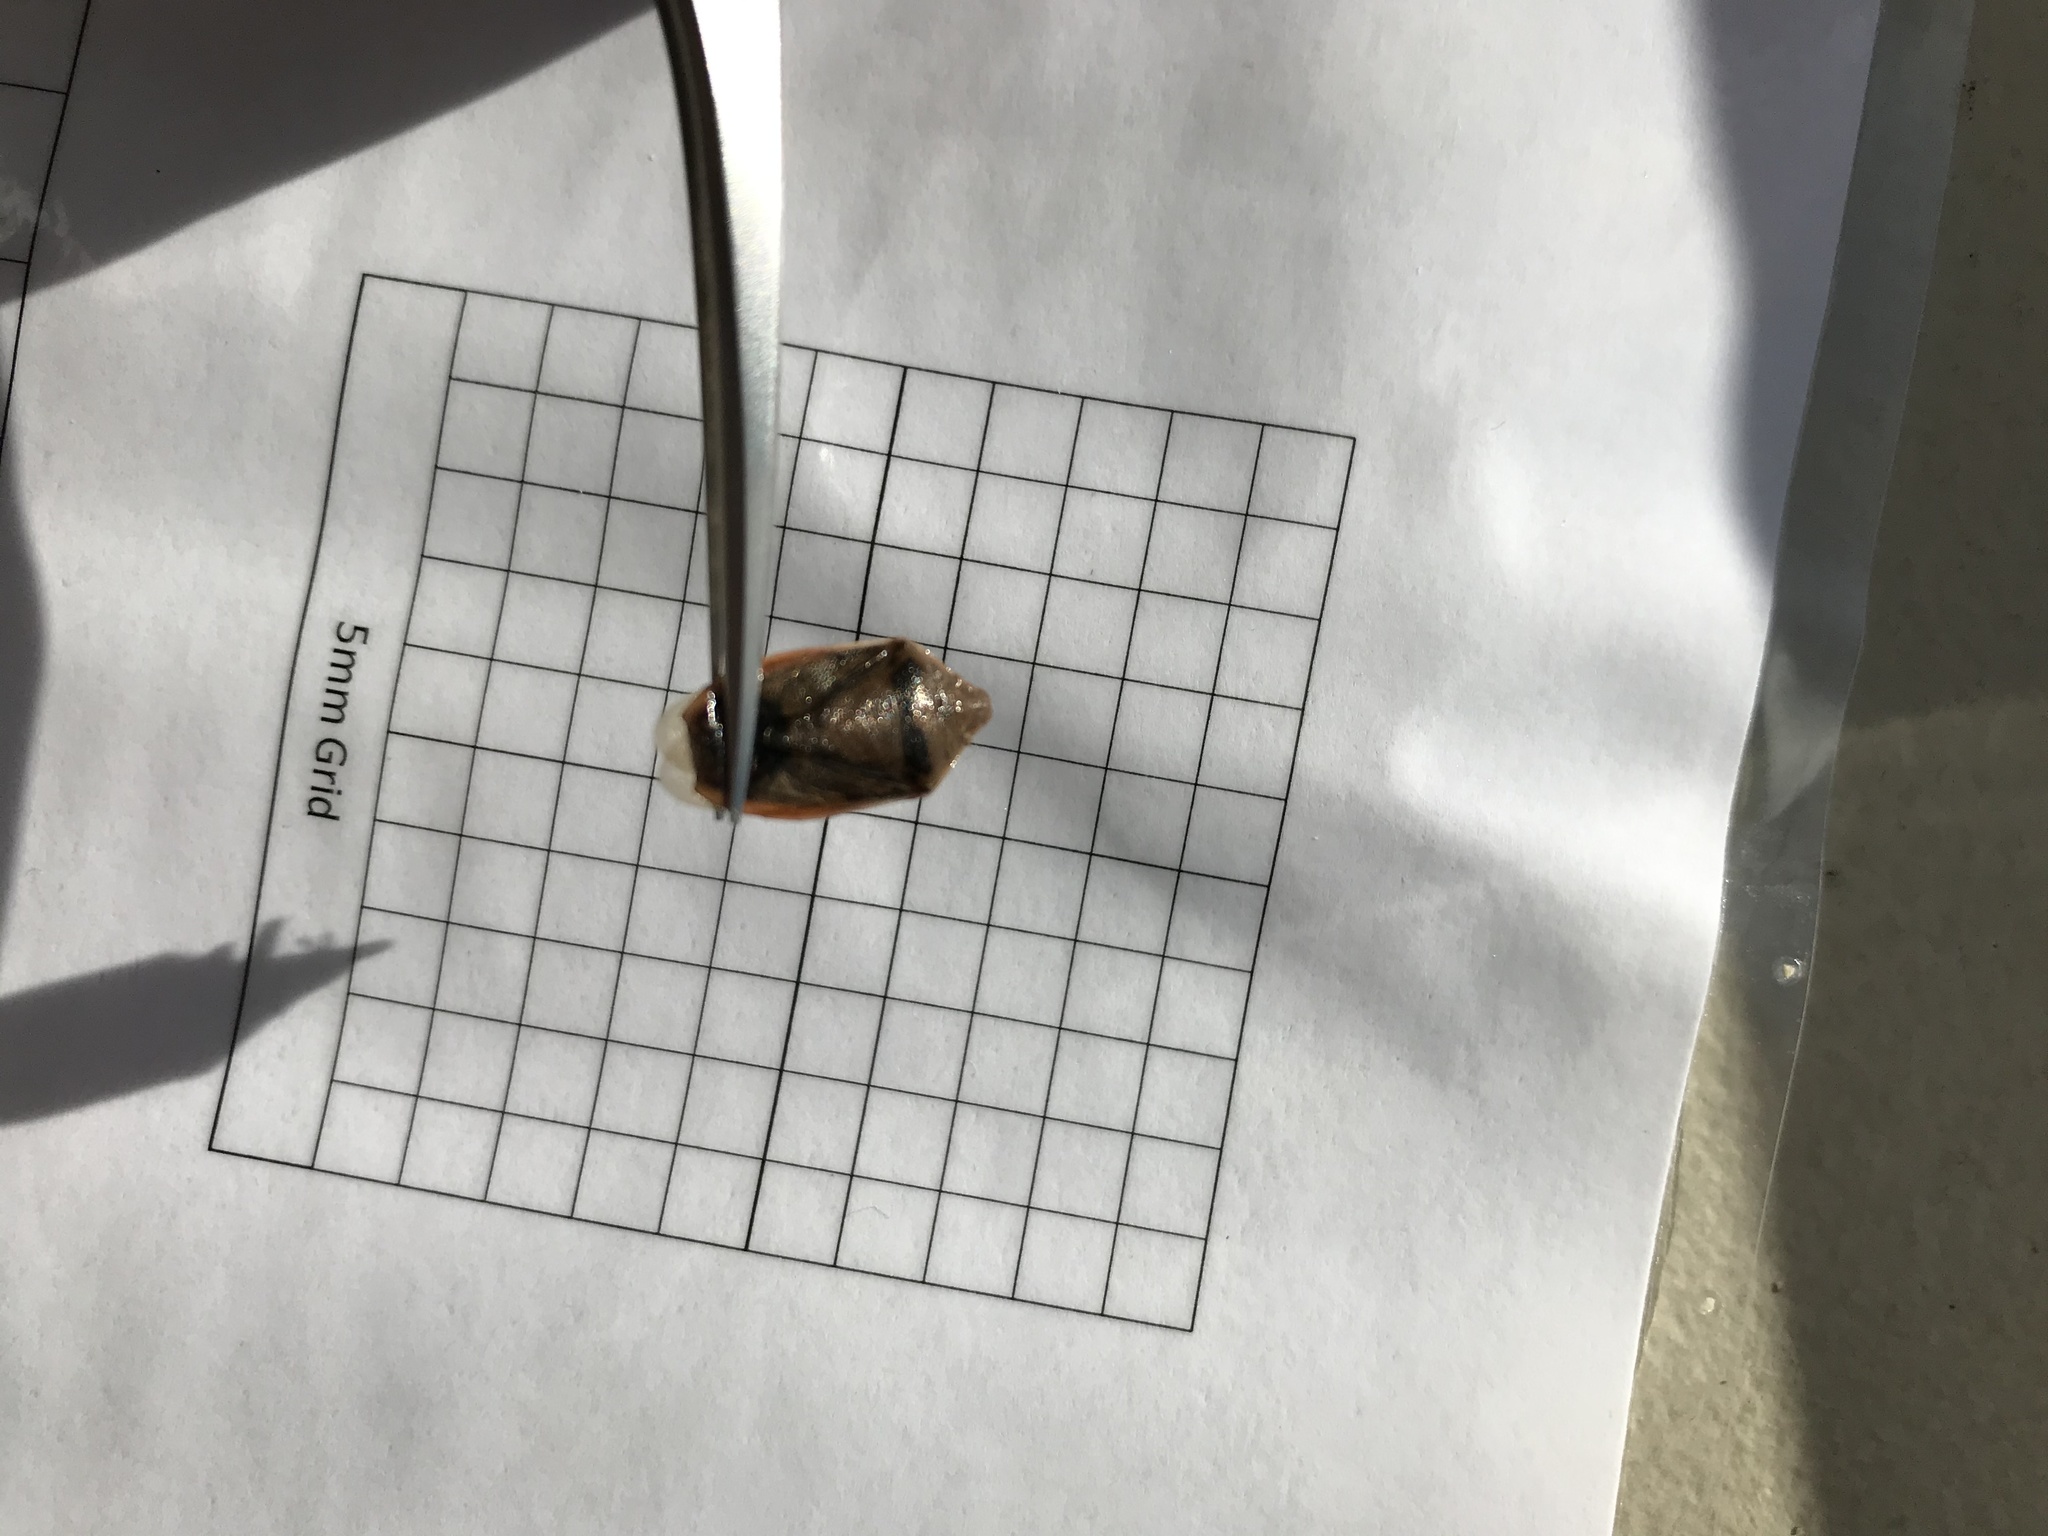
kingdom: Animalia
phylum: Arthropoda
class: Insecta
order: Hemiptera
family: Pentatomidae
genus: Chlorochroa
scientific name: Chlorochroa senilis
